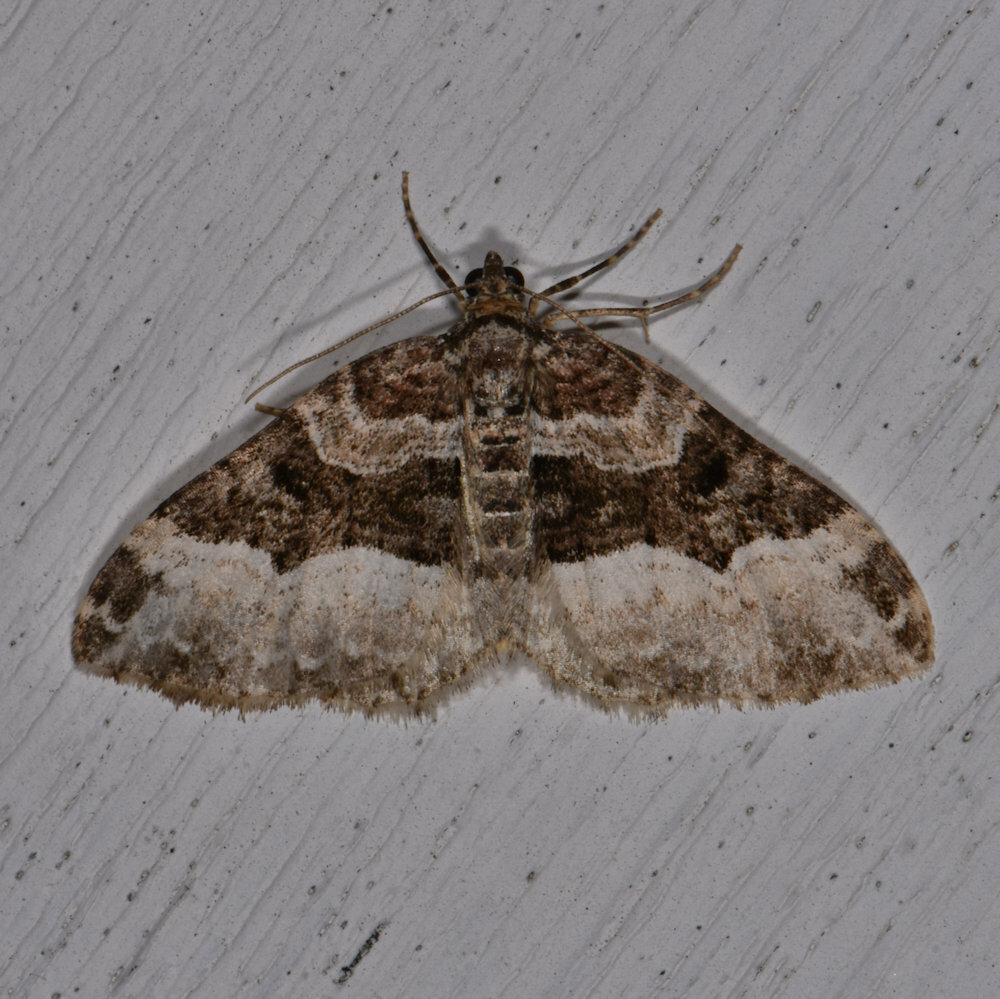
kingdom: Animalia
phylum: Arthropoda
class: Insecta
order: Lepidoptera
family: Geometridae
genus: Euphyia
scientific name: Euphyia intermediata
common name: Sharp-angled carpet
